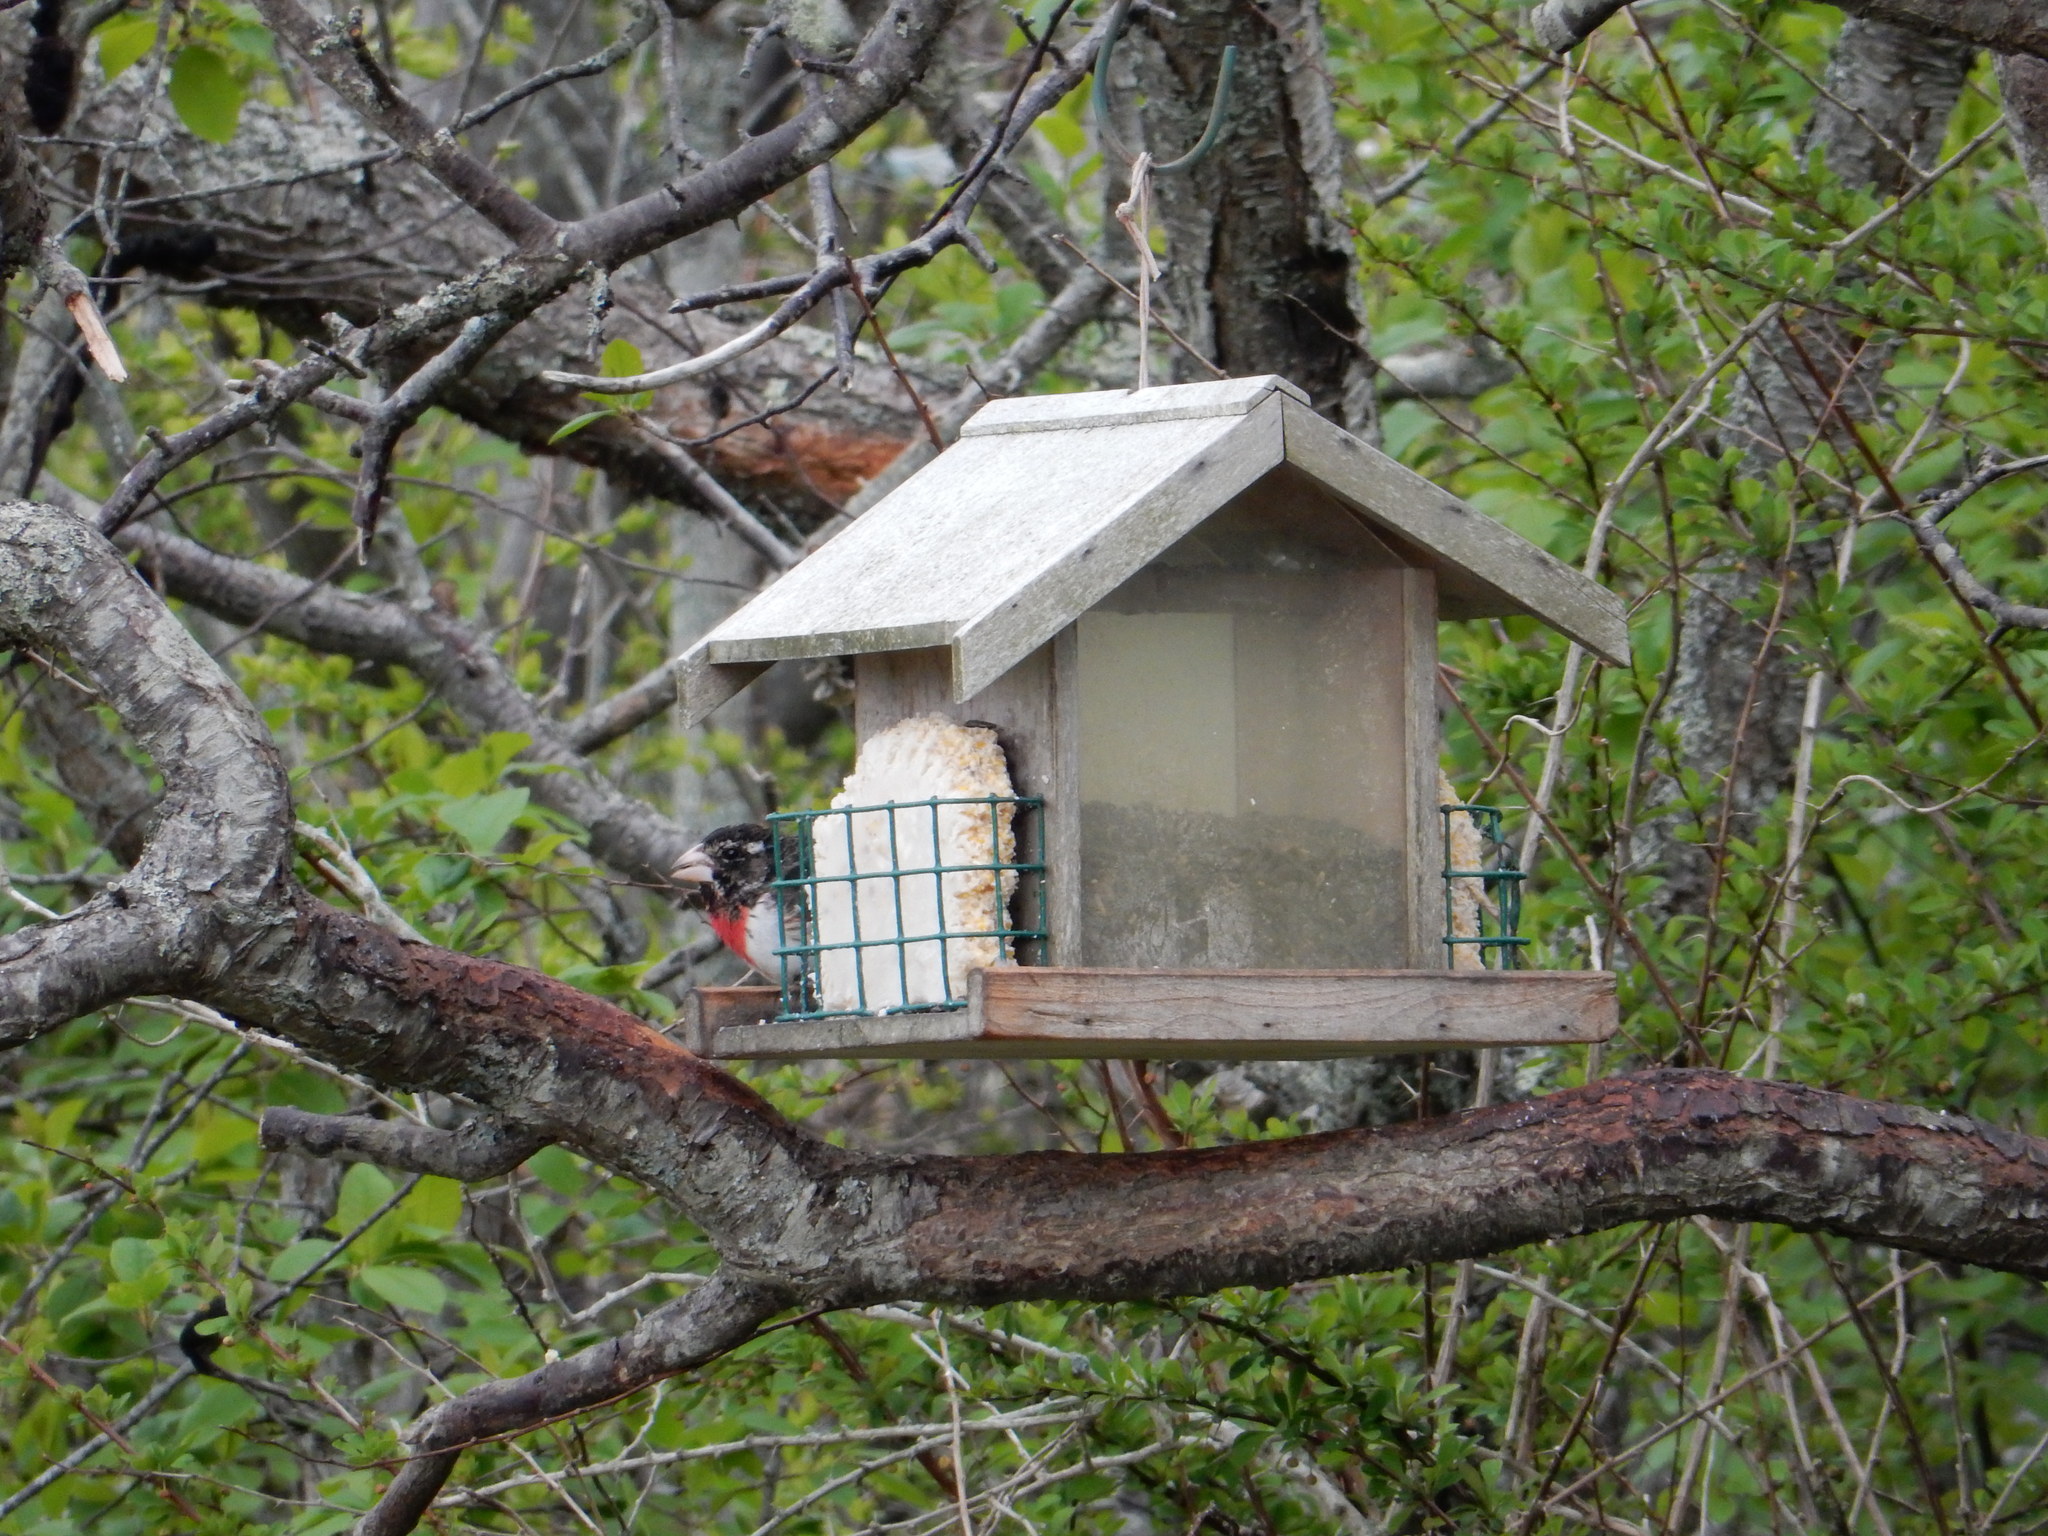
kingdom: Animalia
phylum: Chordata
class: Aves
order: Passeriformes
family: Cardinalidae
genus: Pheucticus
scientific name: Pheucticus ludovicianus
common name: Rose-breasted grosbeak
